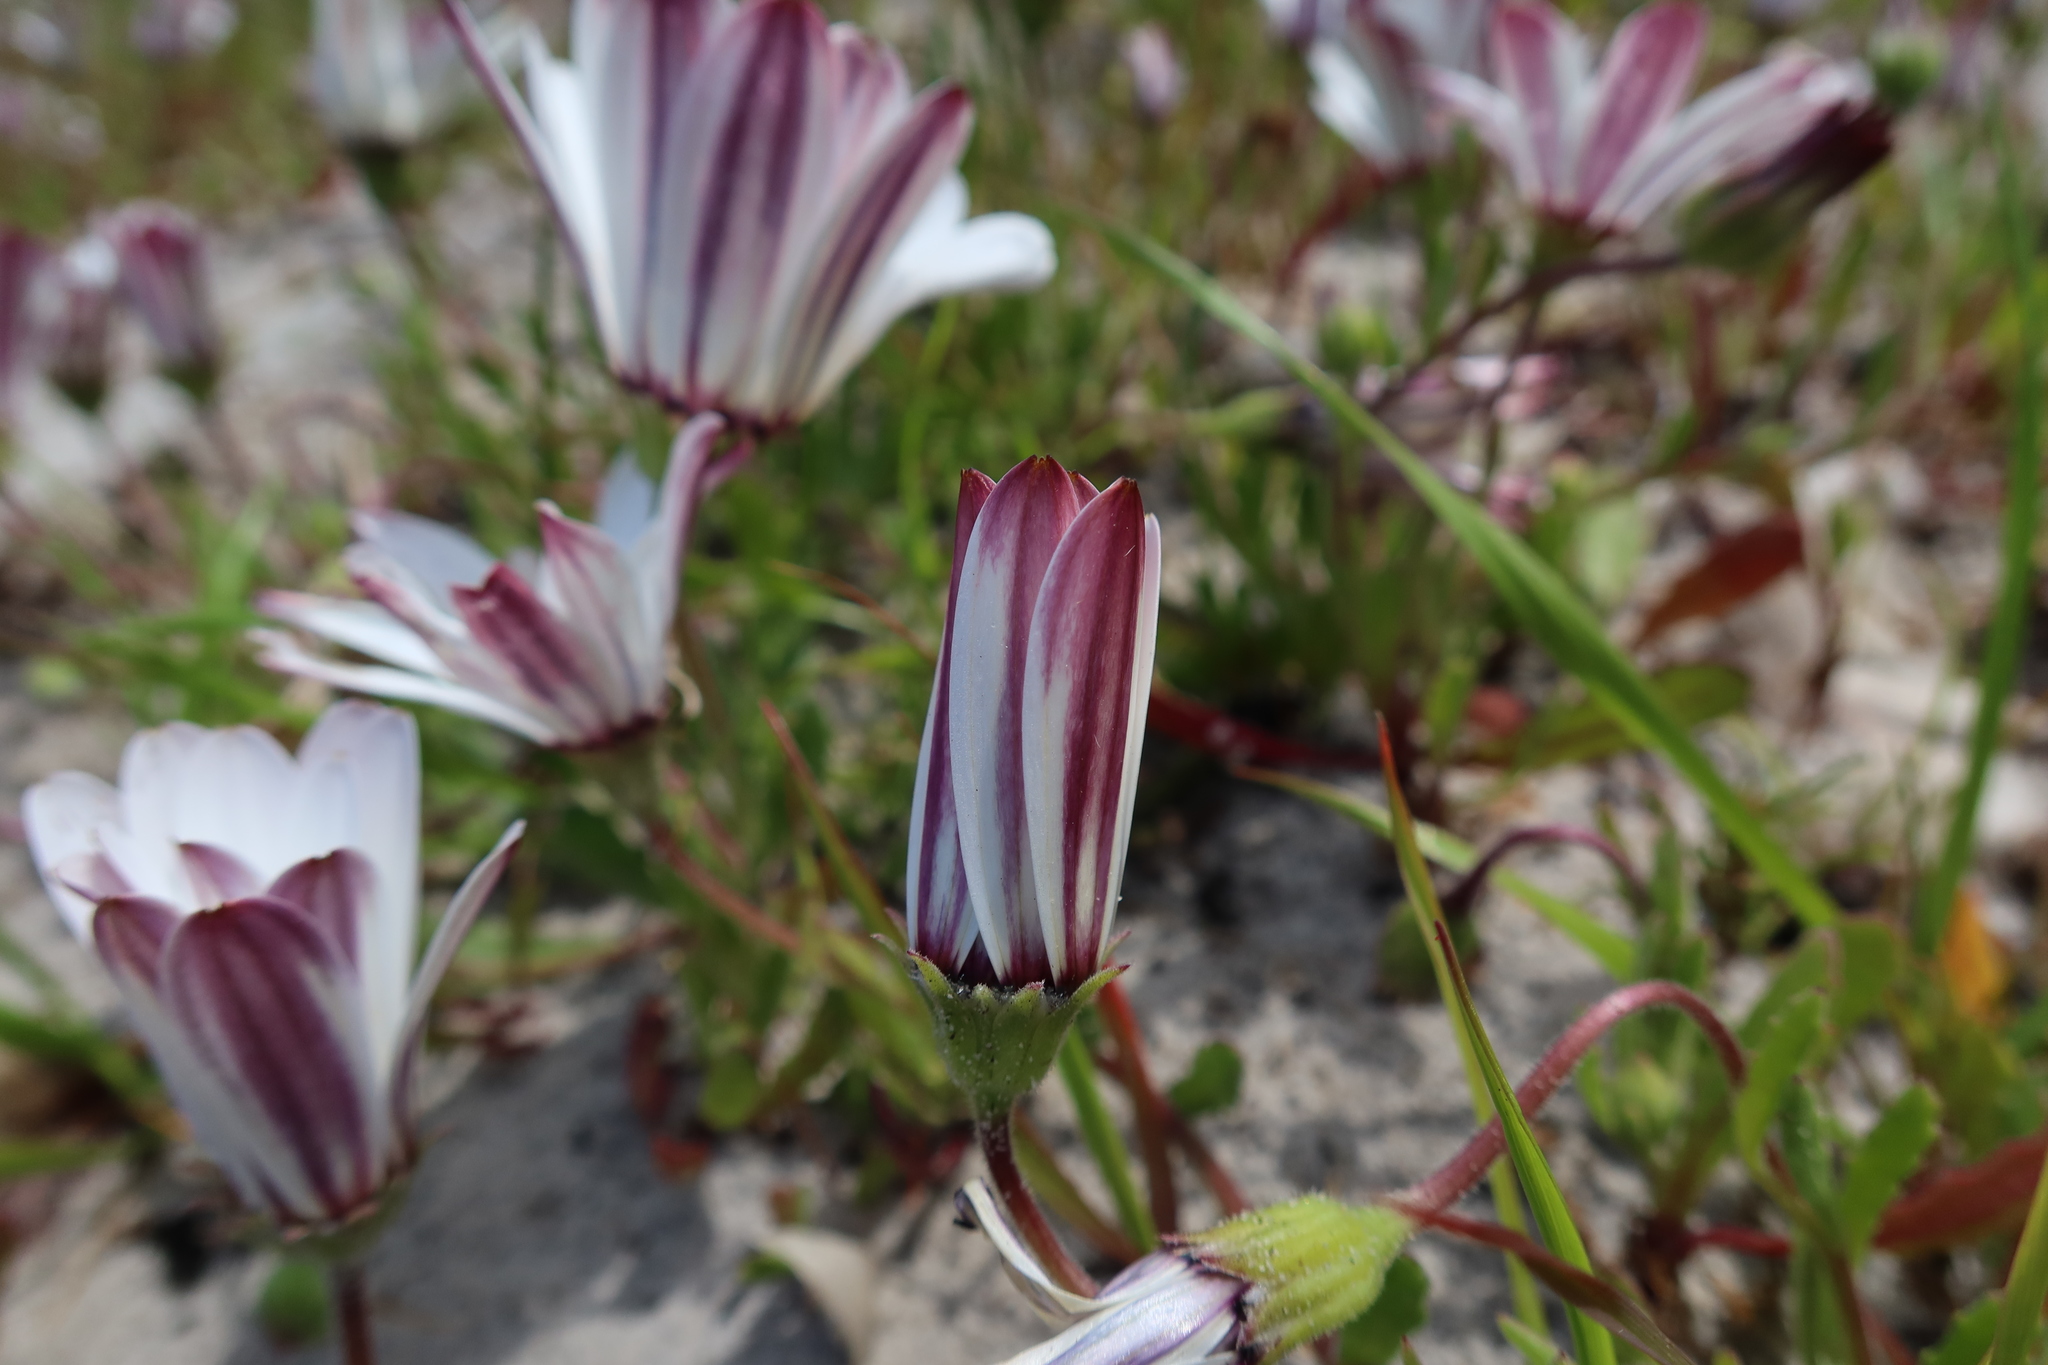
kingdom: Plantae
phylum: Tracheophyta
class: Magnoliopsida
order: Asterales
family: Asteraceae
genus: Dimorphotheca
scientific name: Dimorphotheca pluvialis
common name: Weather prophet
